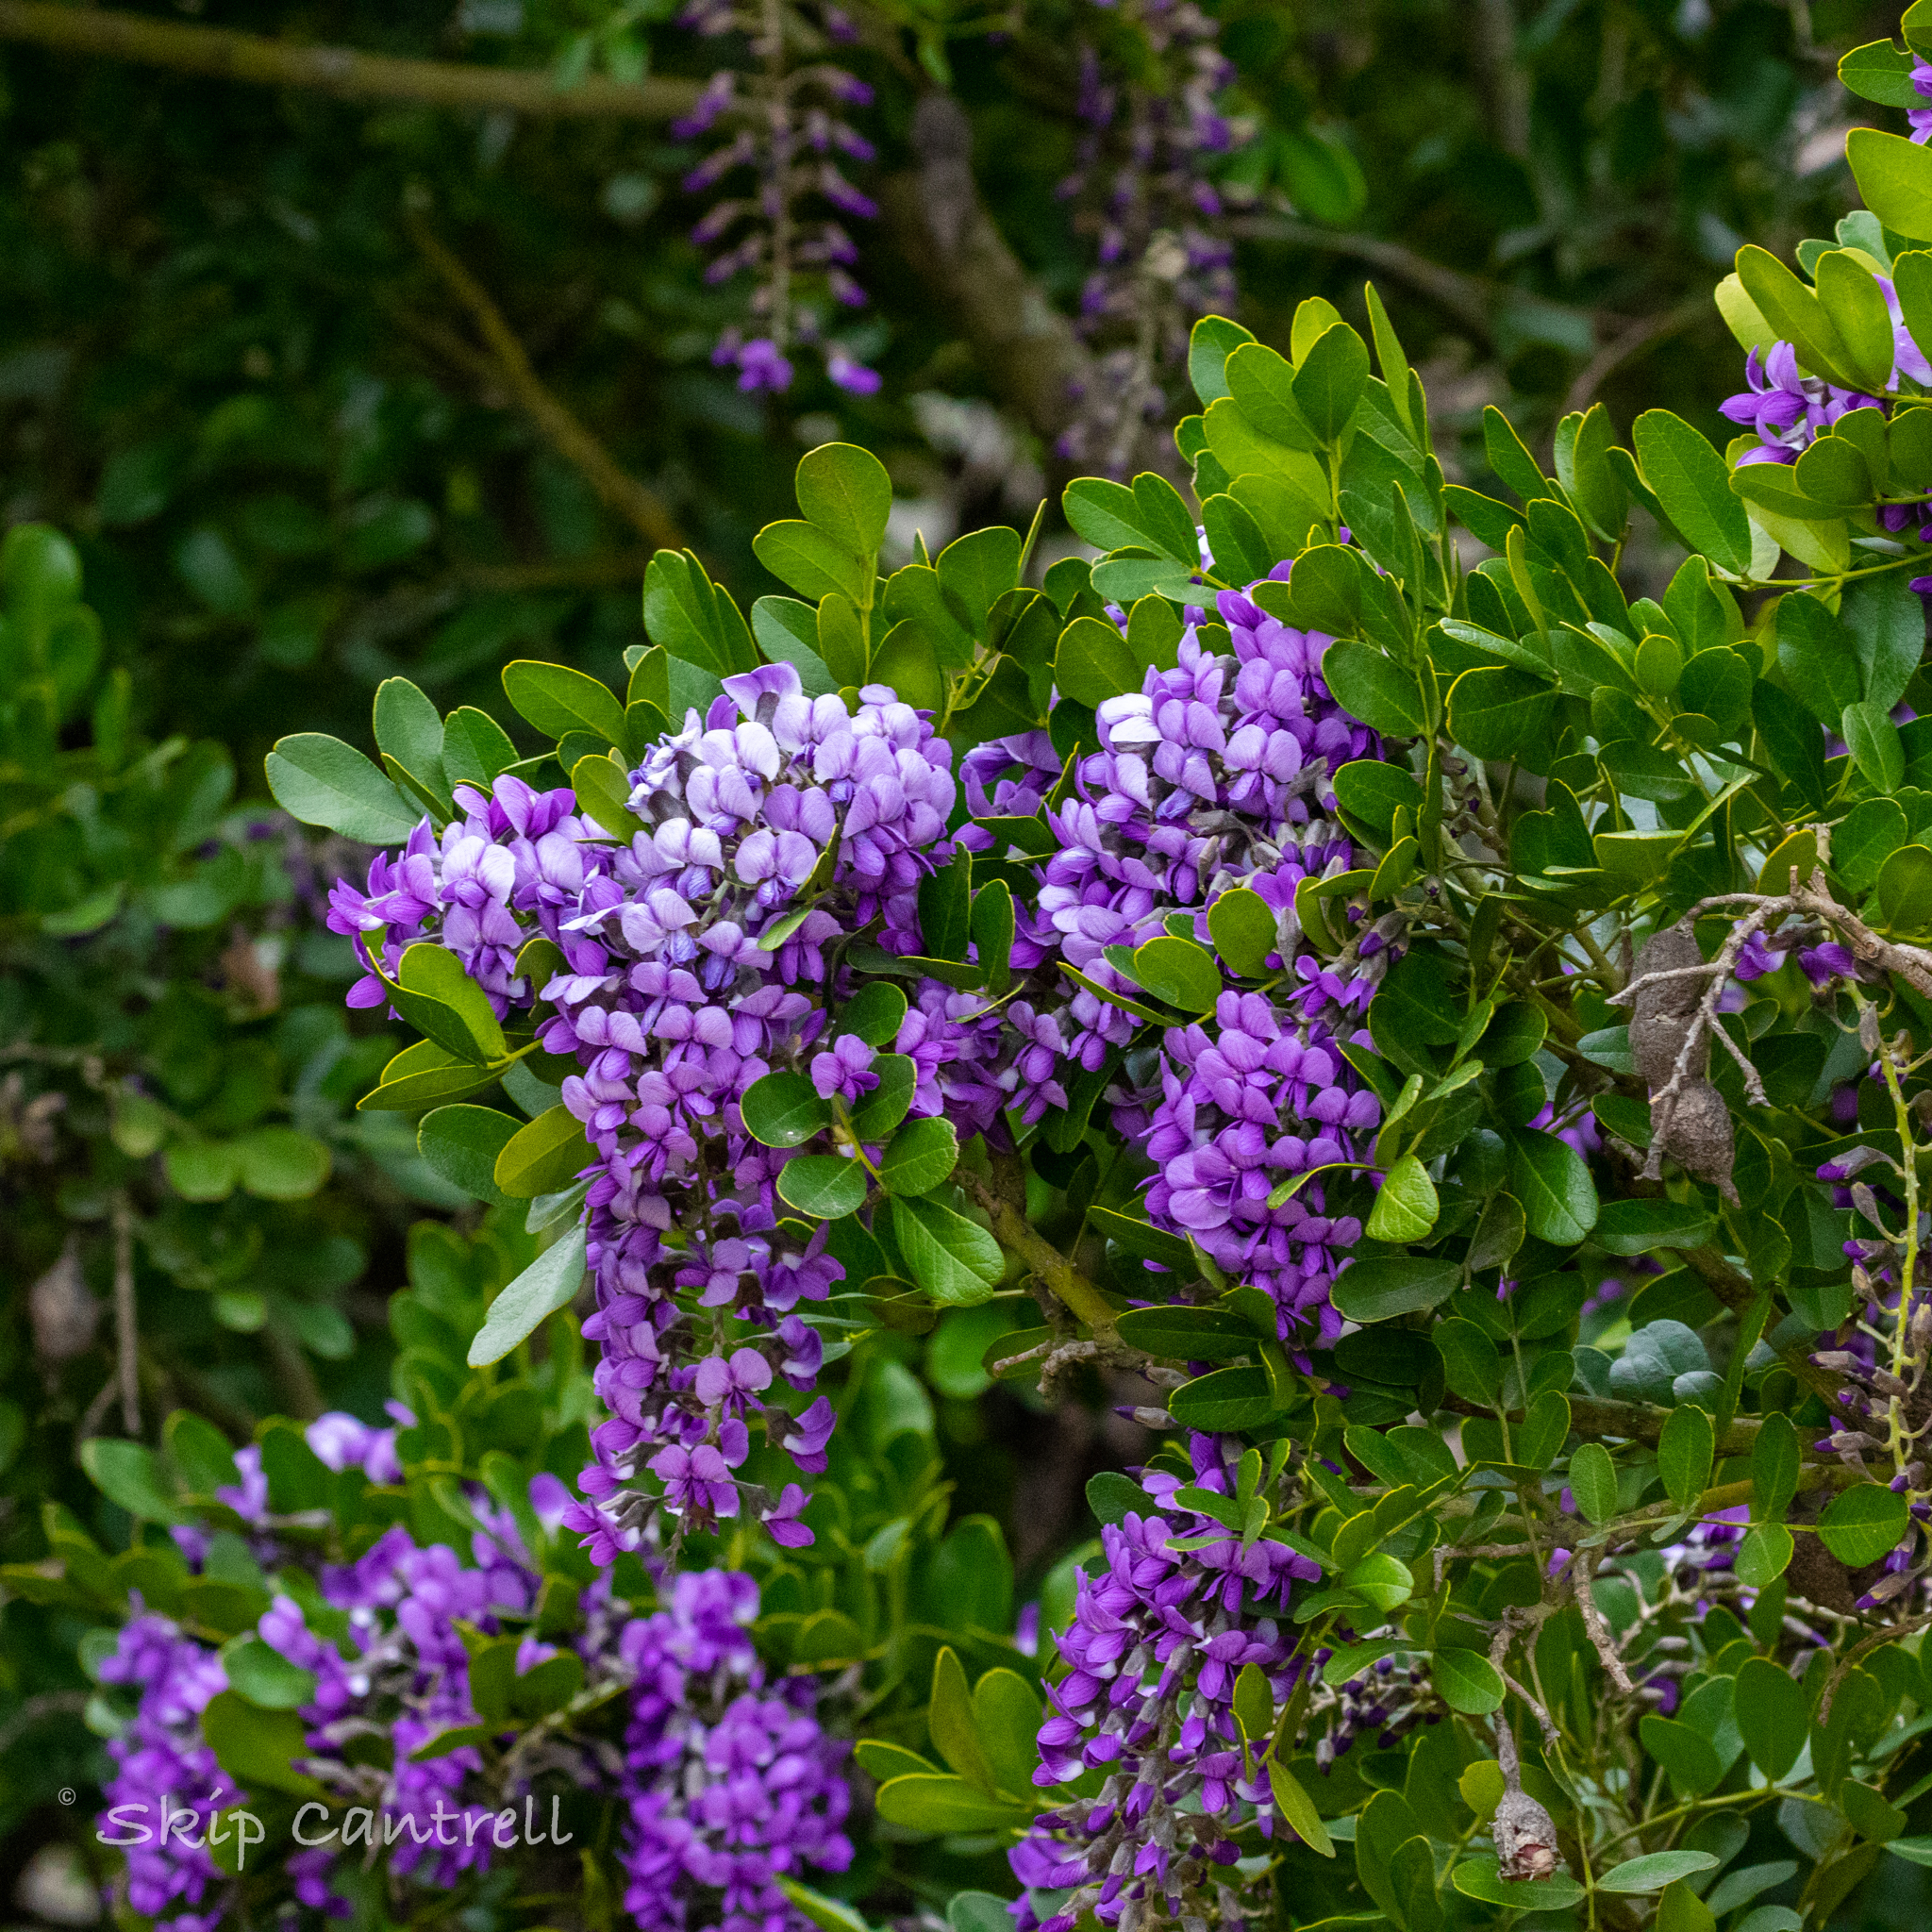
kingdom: Plantae
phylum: Tracheophyta
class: Magnoliopsida
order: Fabales
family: Fabaceae
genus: Dermatophyllum
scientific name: Dermatophyllum secundiflorum
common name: Texas-mountain-laurel
